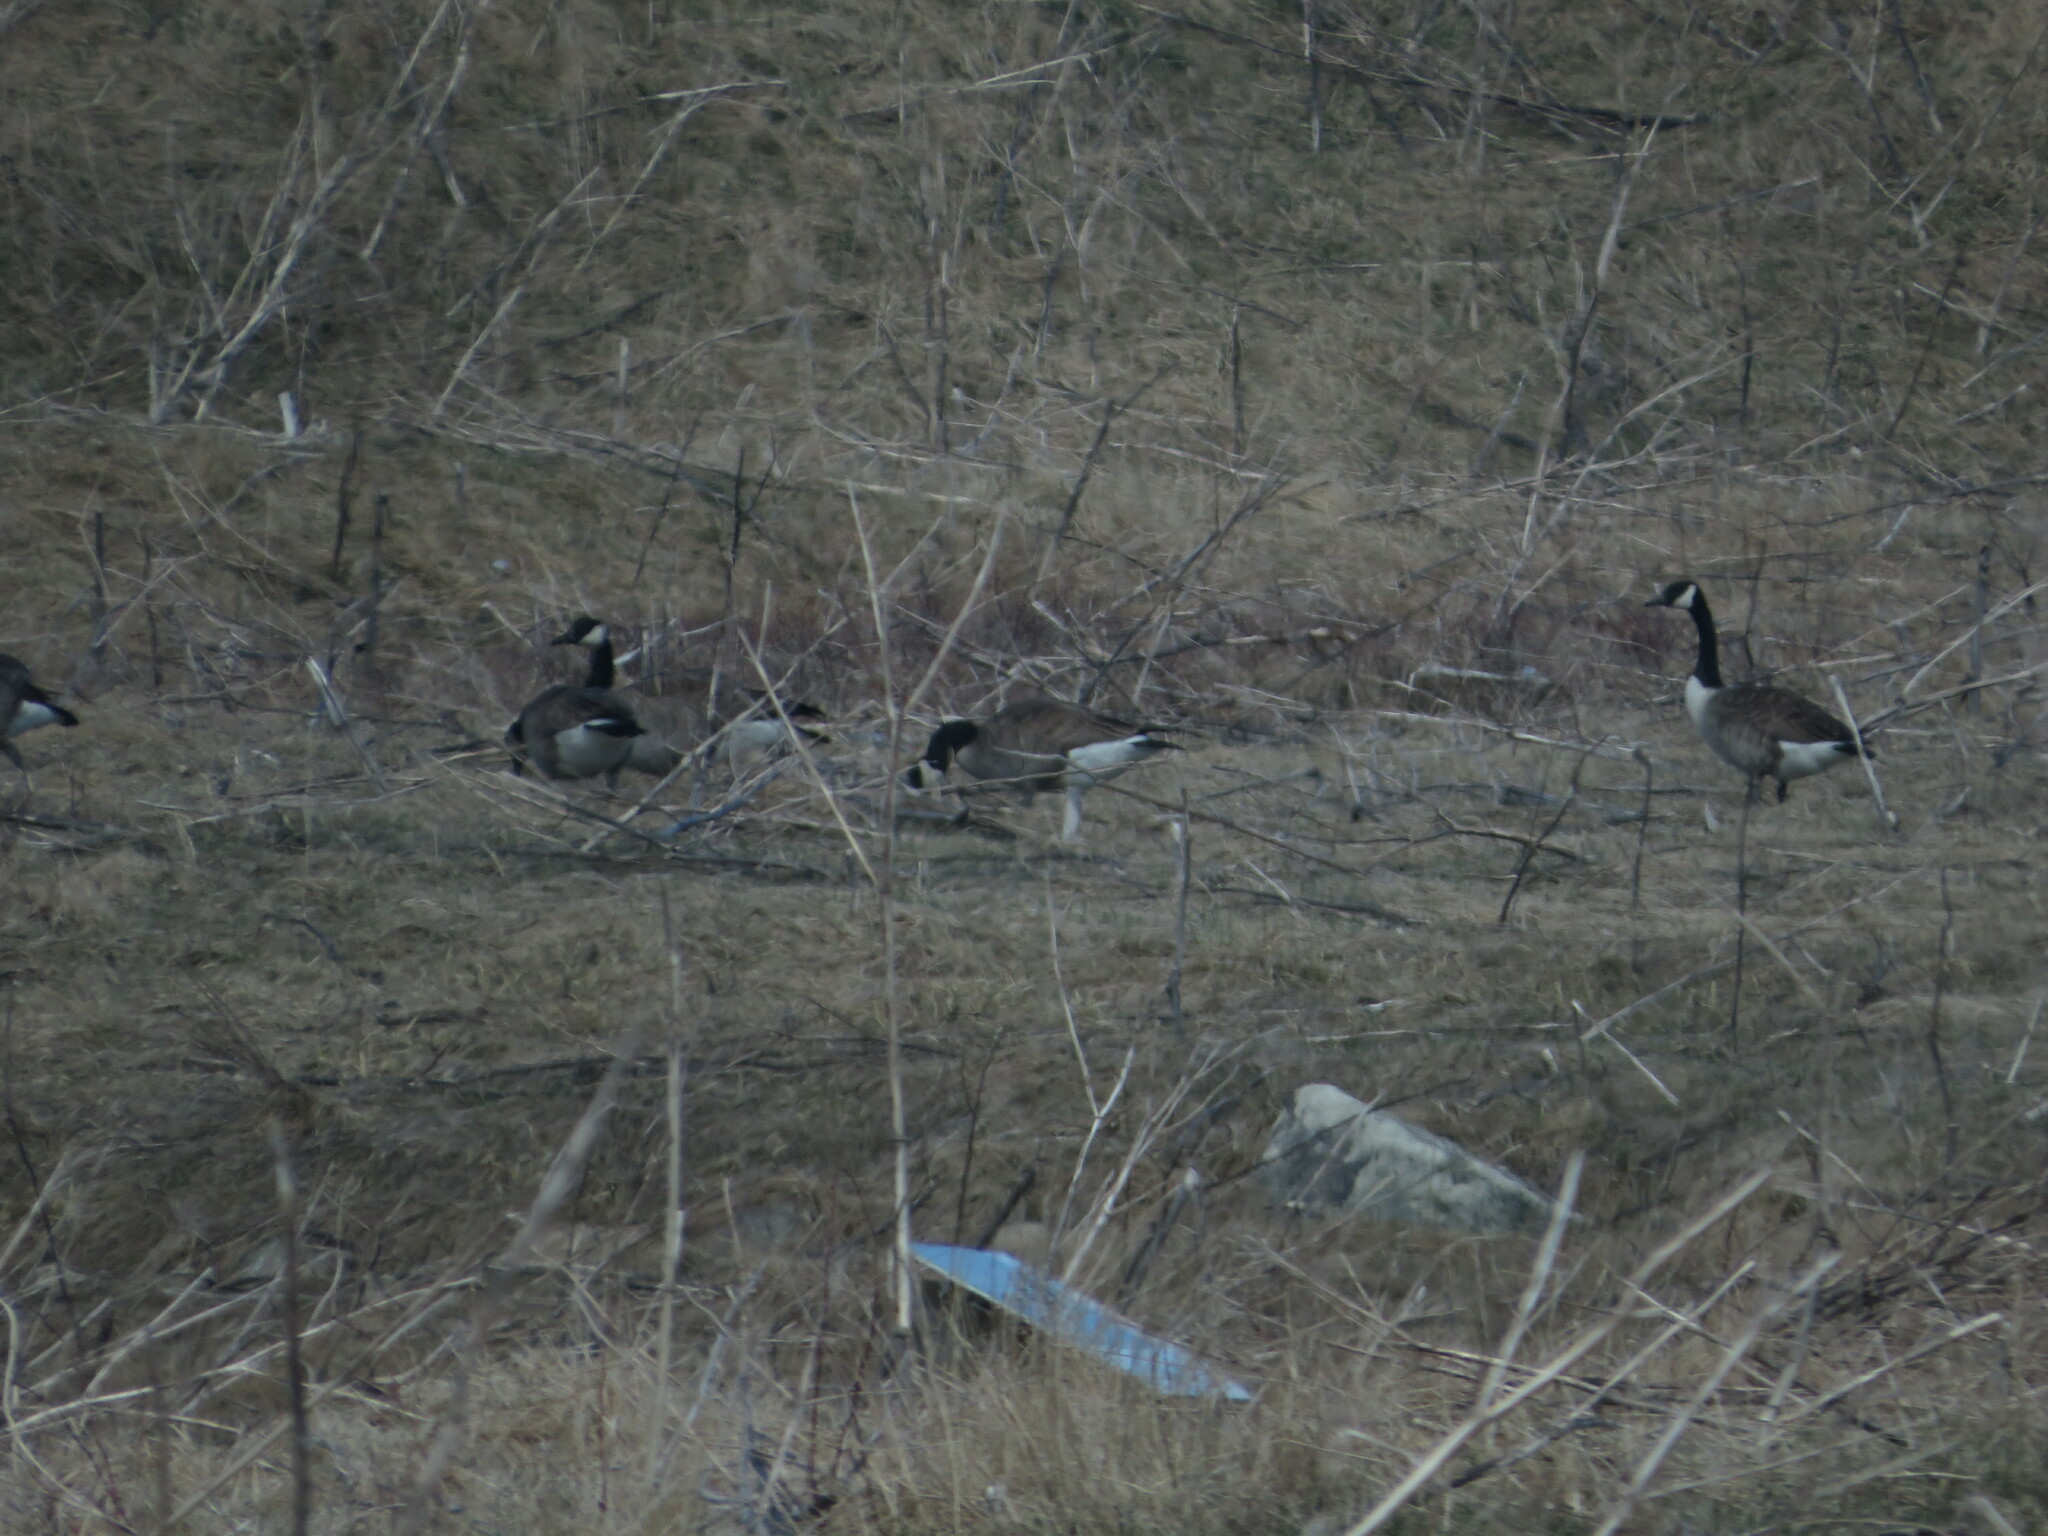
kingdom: Animalia
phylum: Chordata
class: Aves
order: Anseriformes
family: Anatidae
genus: Branta
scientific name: Branta canadensis
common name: Canada goose
